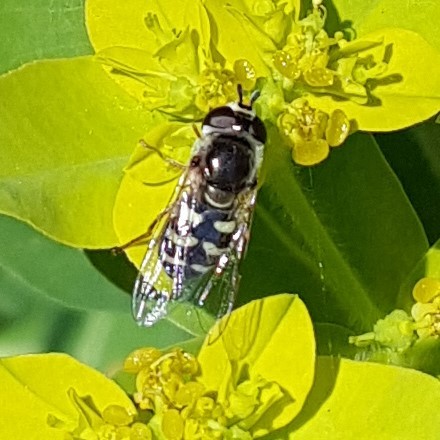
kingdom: Animalia
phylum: Arthropoda
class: Insecta
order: Diptera
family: Syrphidae
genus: Eupeodes
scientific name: Eupeodes volucris
